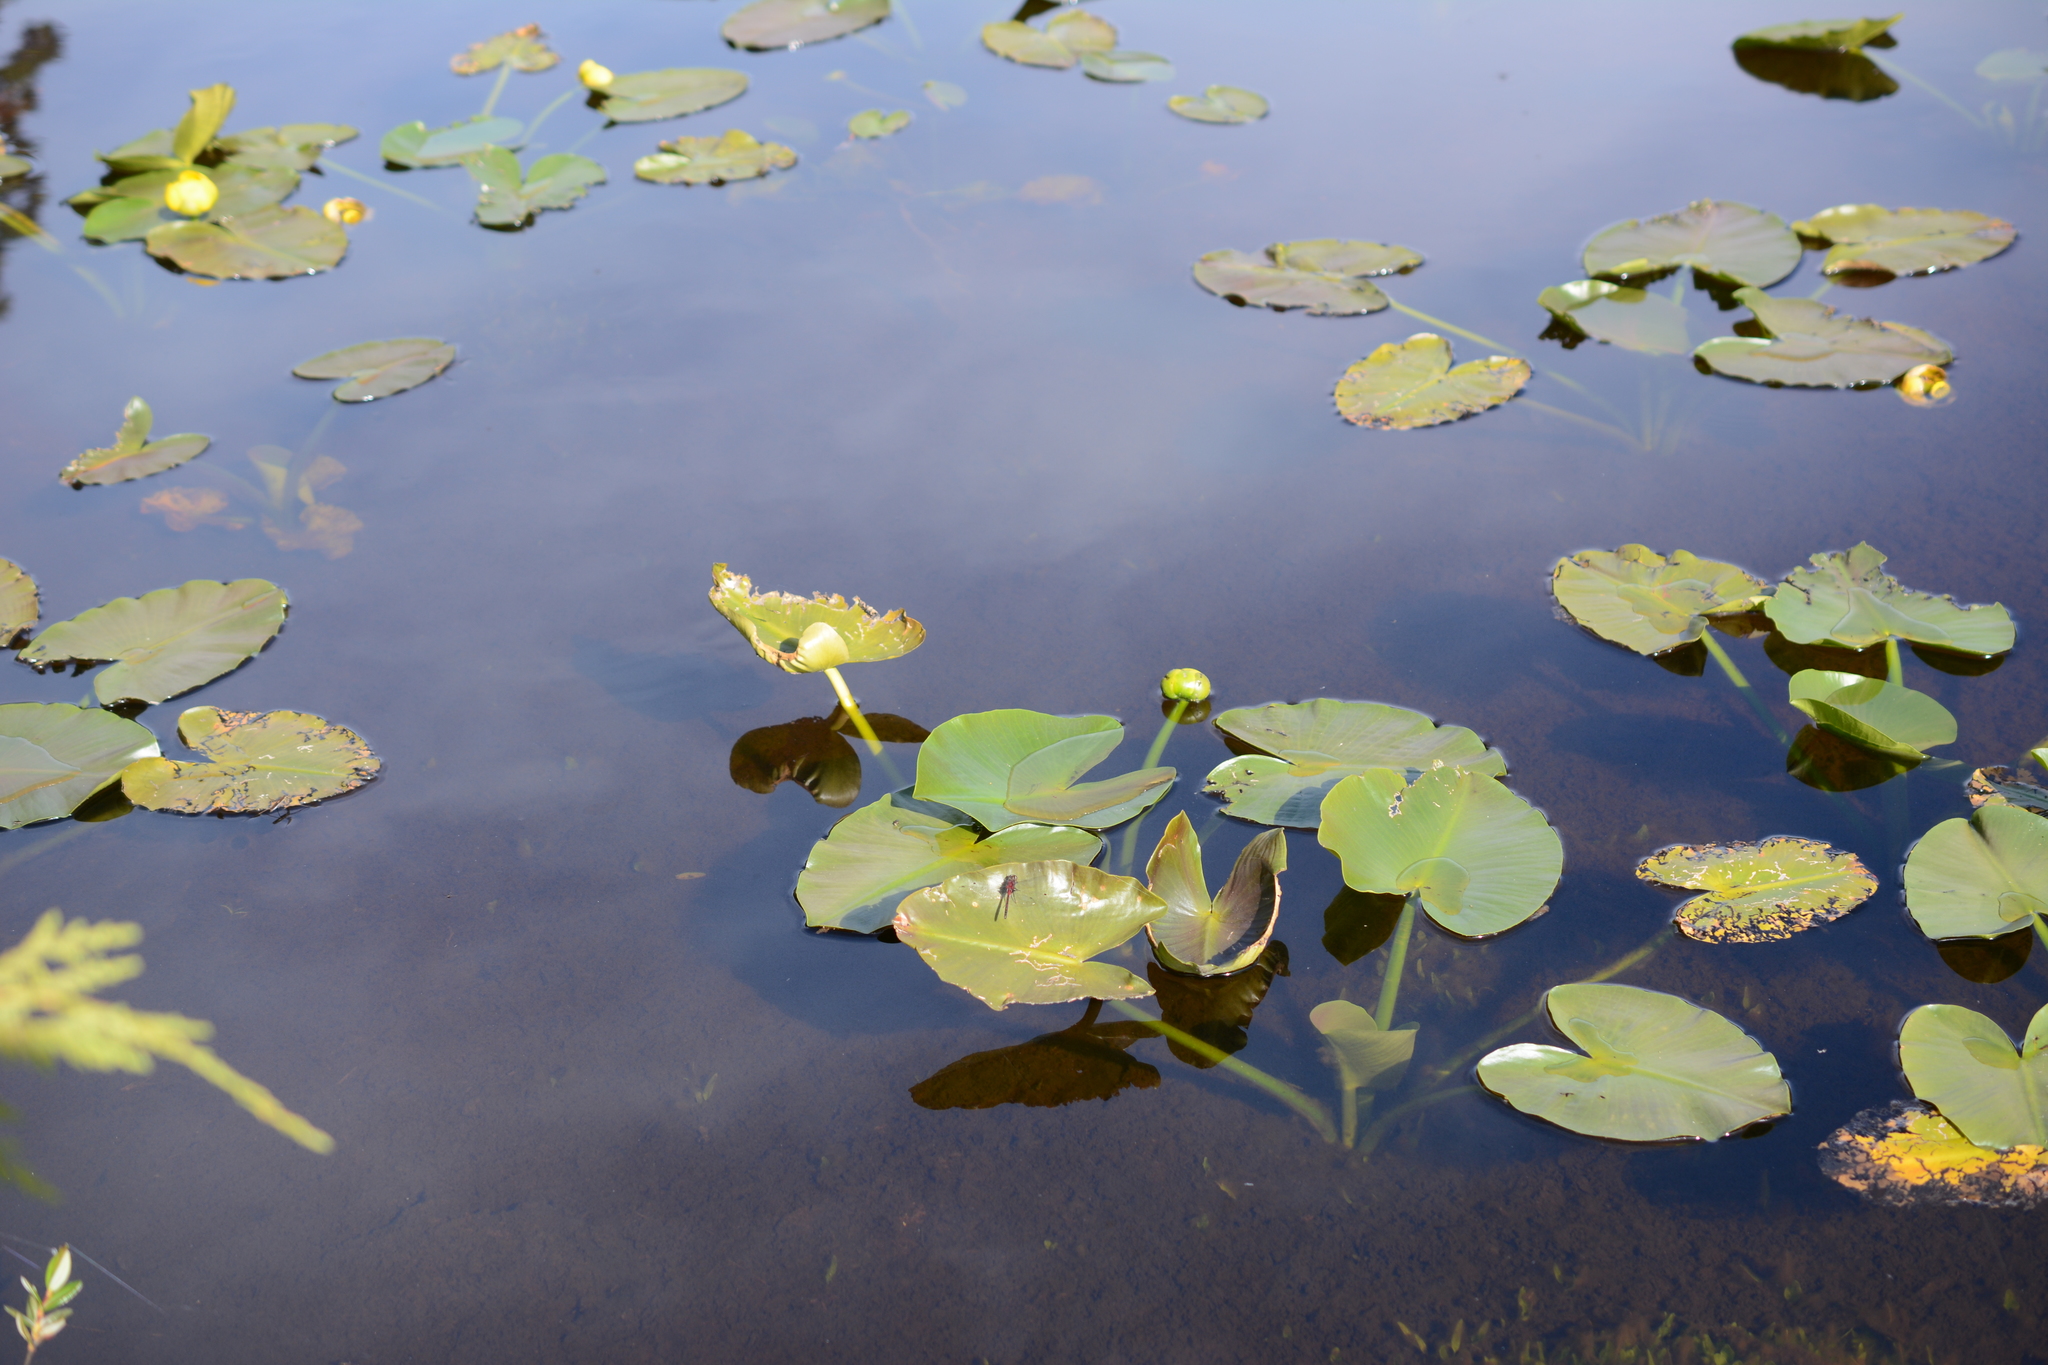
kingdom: Plantae
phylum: Tracheophyta
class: Magnoliopsida
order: Nymphaeales
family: Nymphaeaceae
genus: Nuphar
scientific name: Nuphar polysepala
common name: Rocky mountain cow-lily
